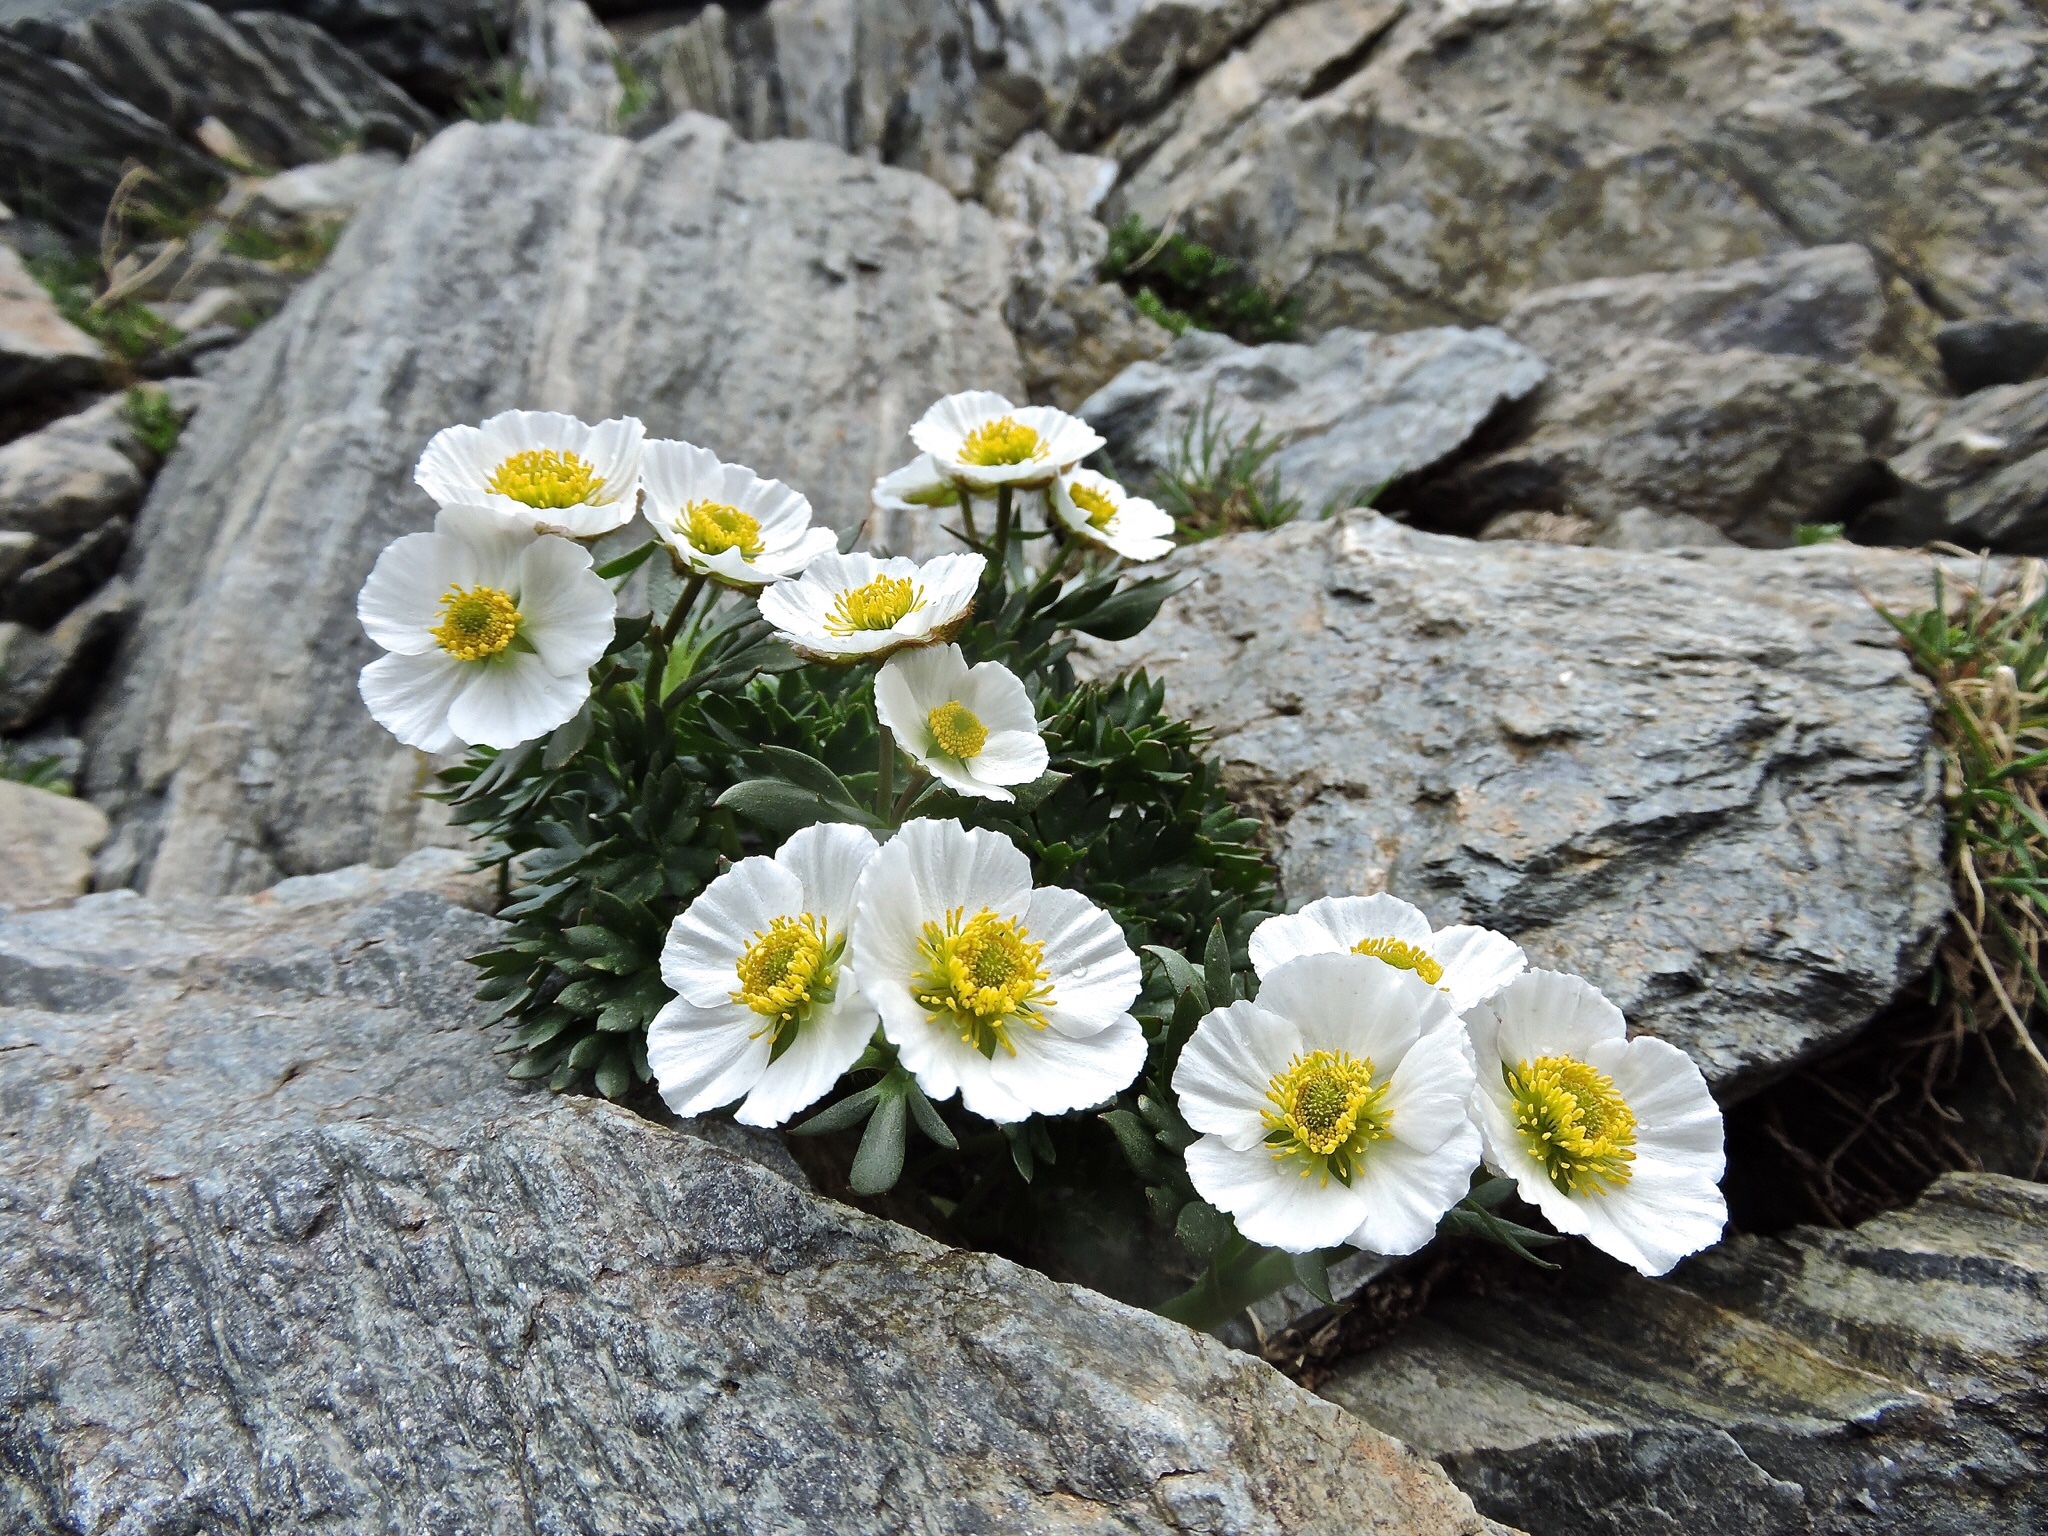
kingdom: Plantae
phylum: Tracheophyta
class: Magnoliopsida
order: Ranunculales
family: Ranunculaceae
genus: Ranunculus
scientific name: Ranunculus glacialis
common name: Glacier buttercup
